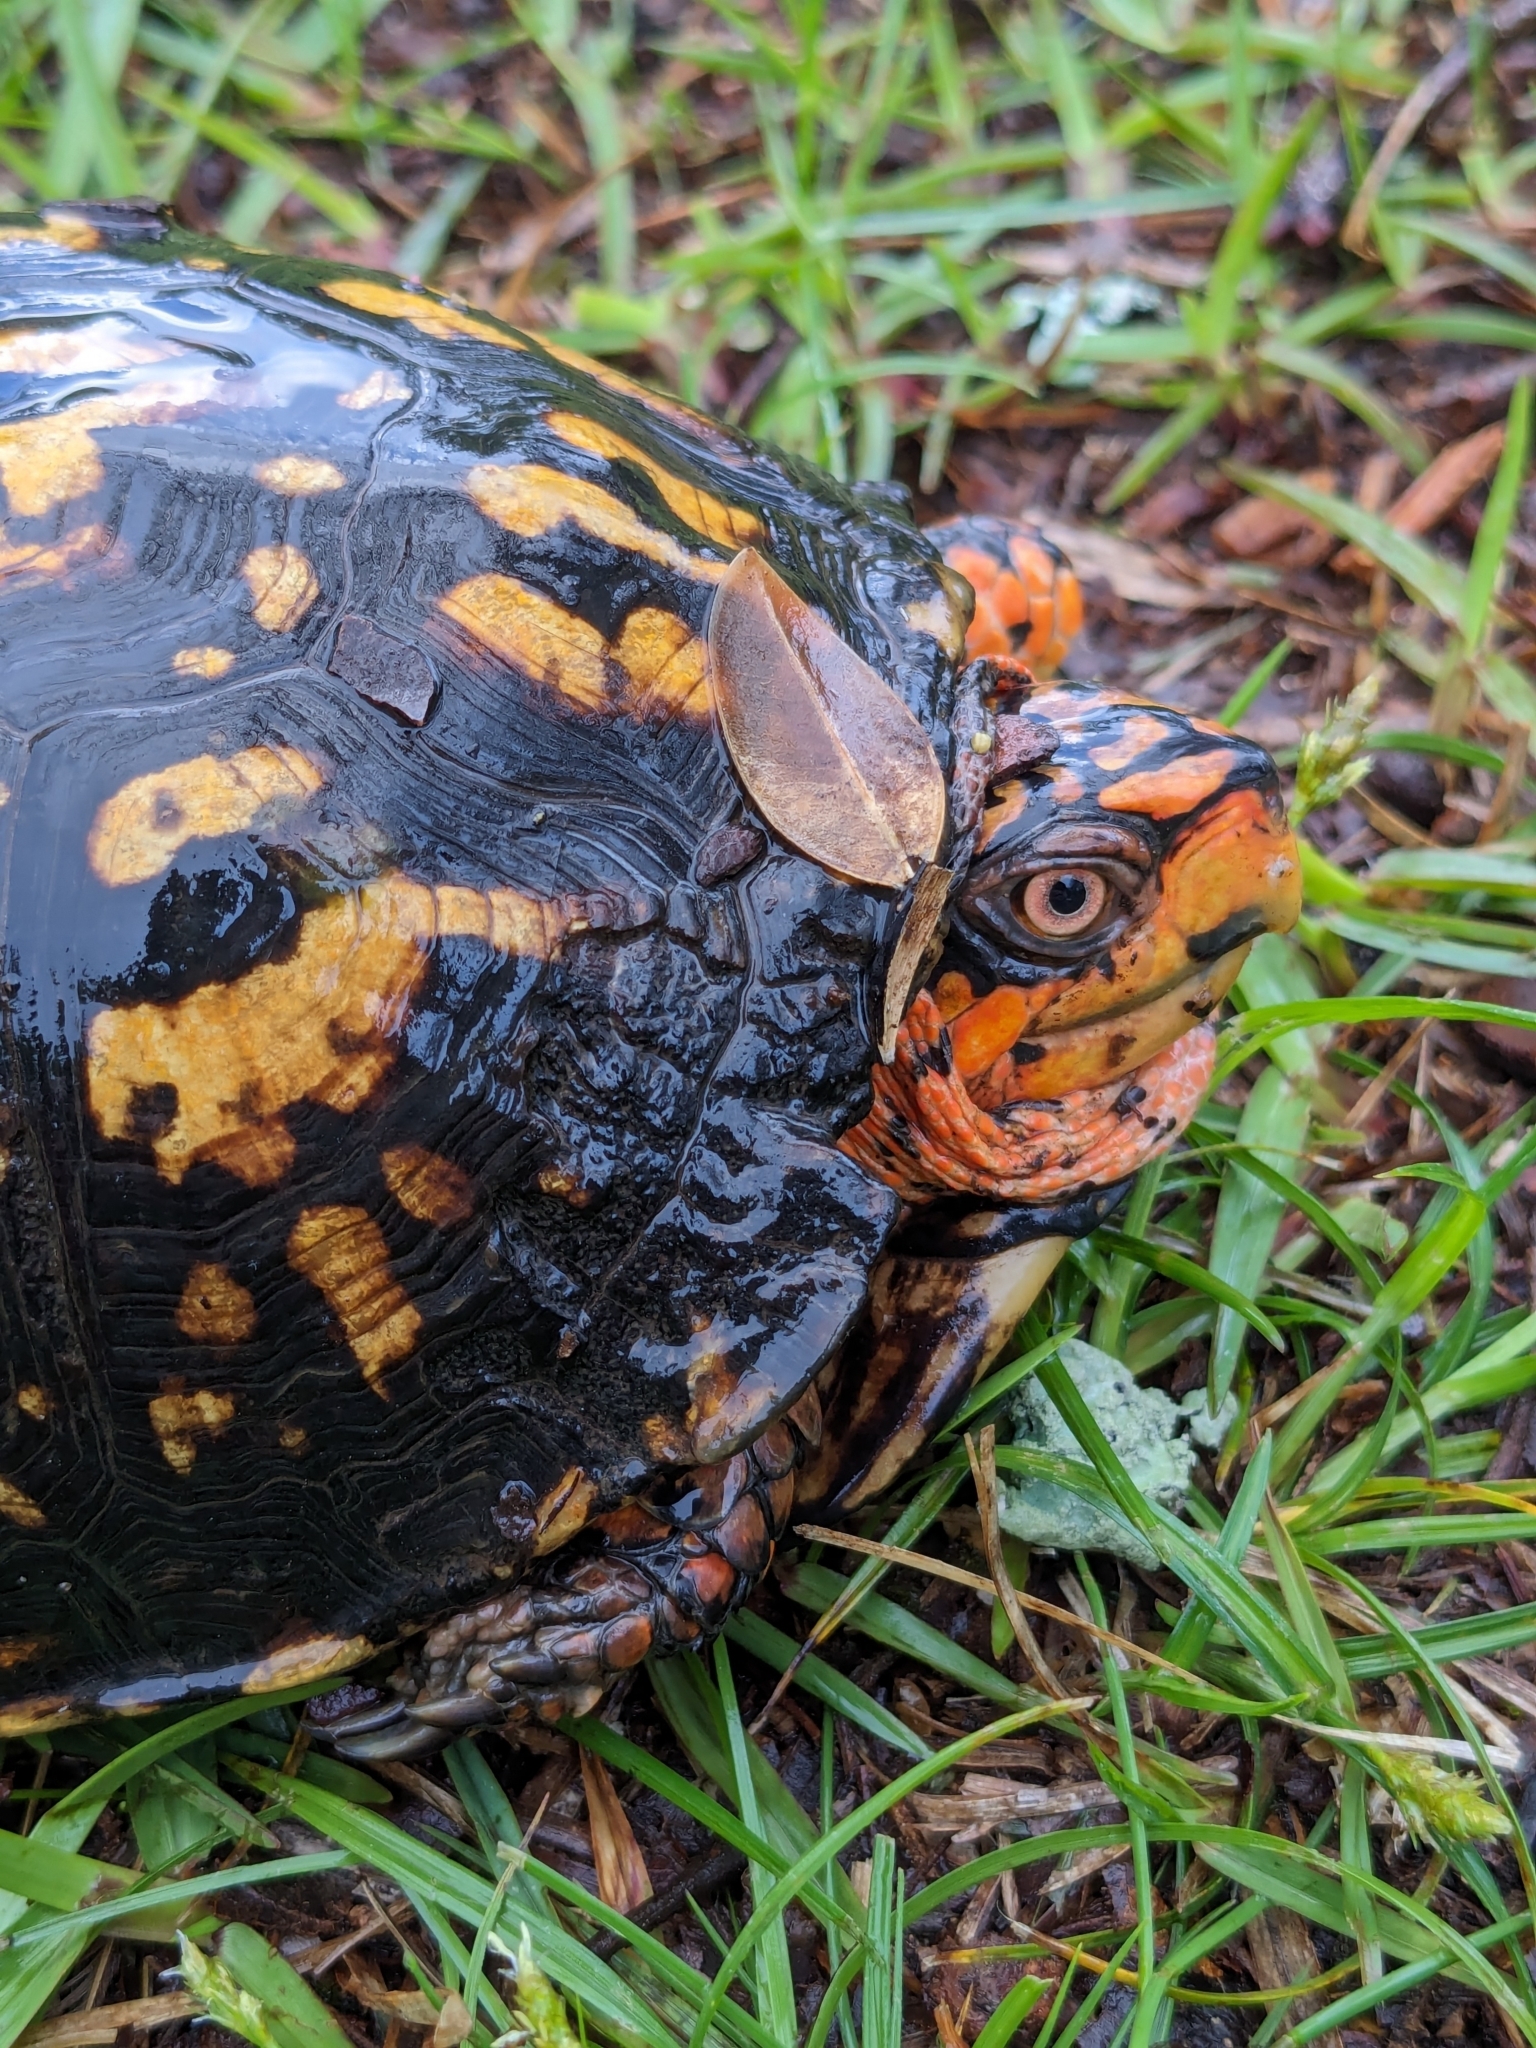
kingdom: Animalia
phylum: Chordata
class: Testudines
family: Emydidae
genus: Terrapene
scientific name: Terrapene carolina
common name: Common box turtle
